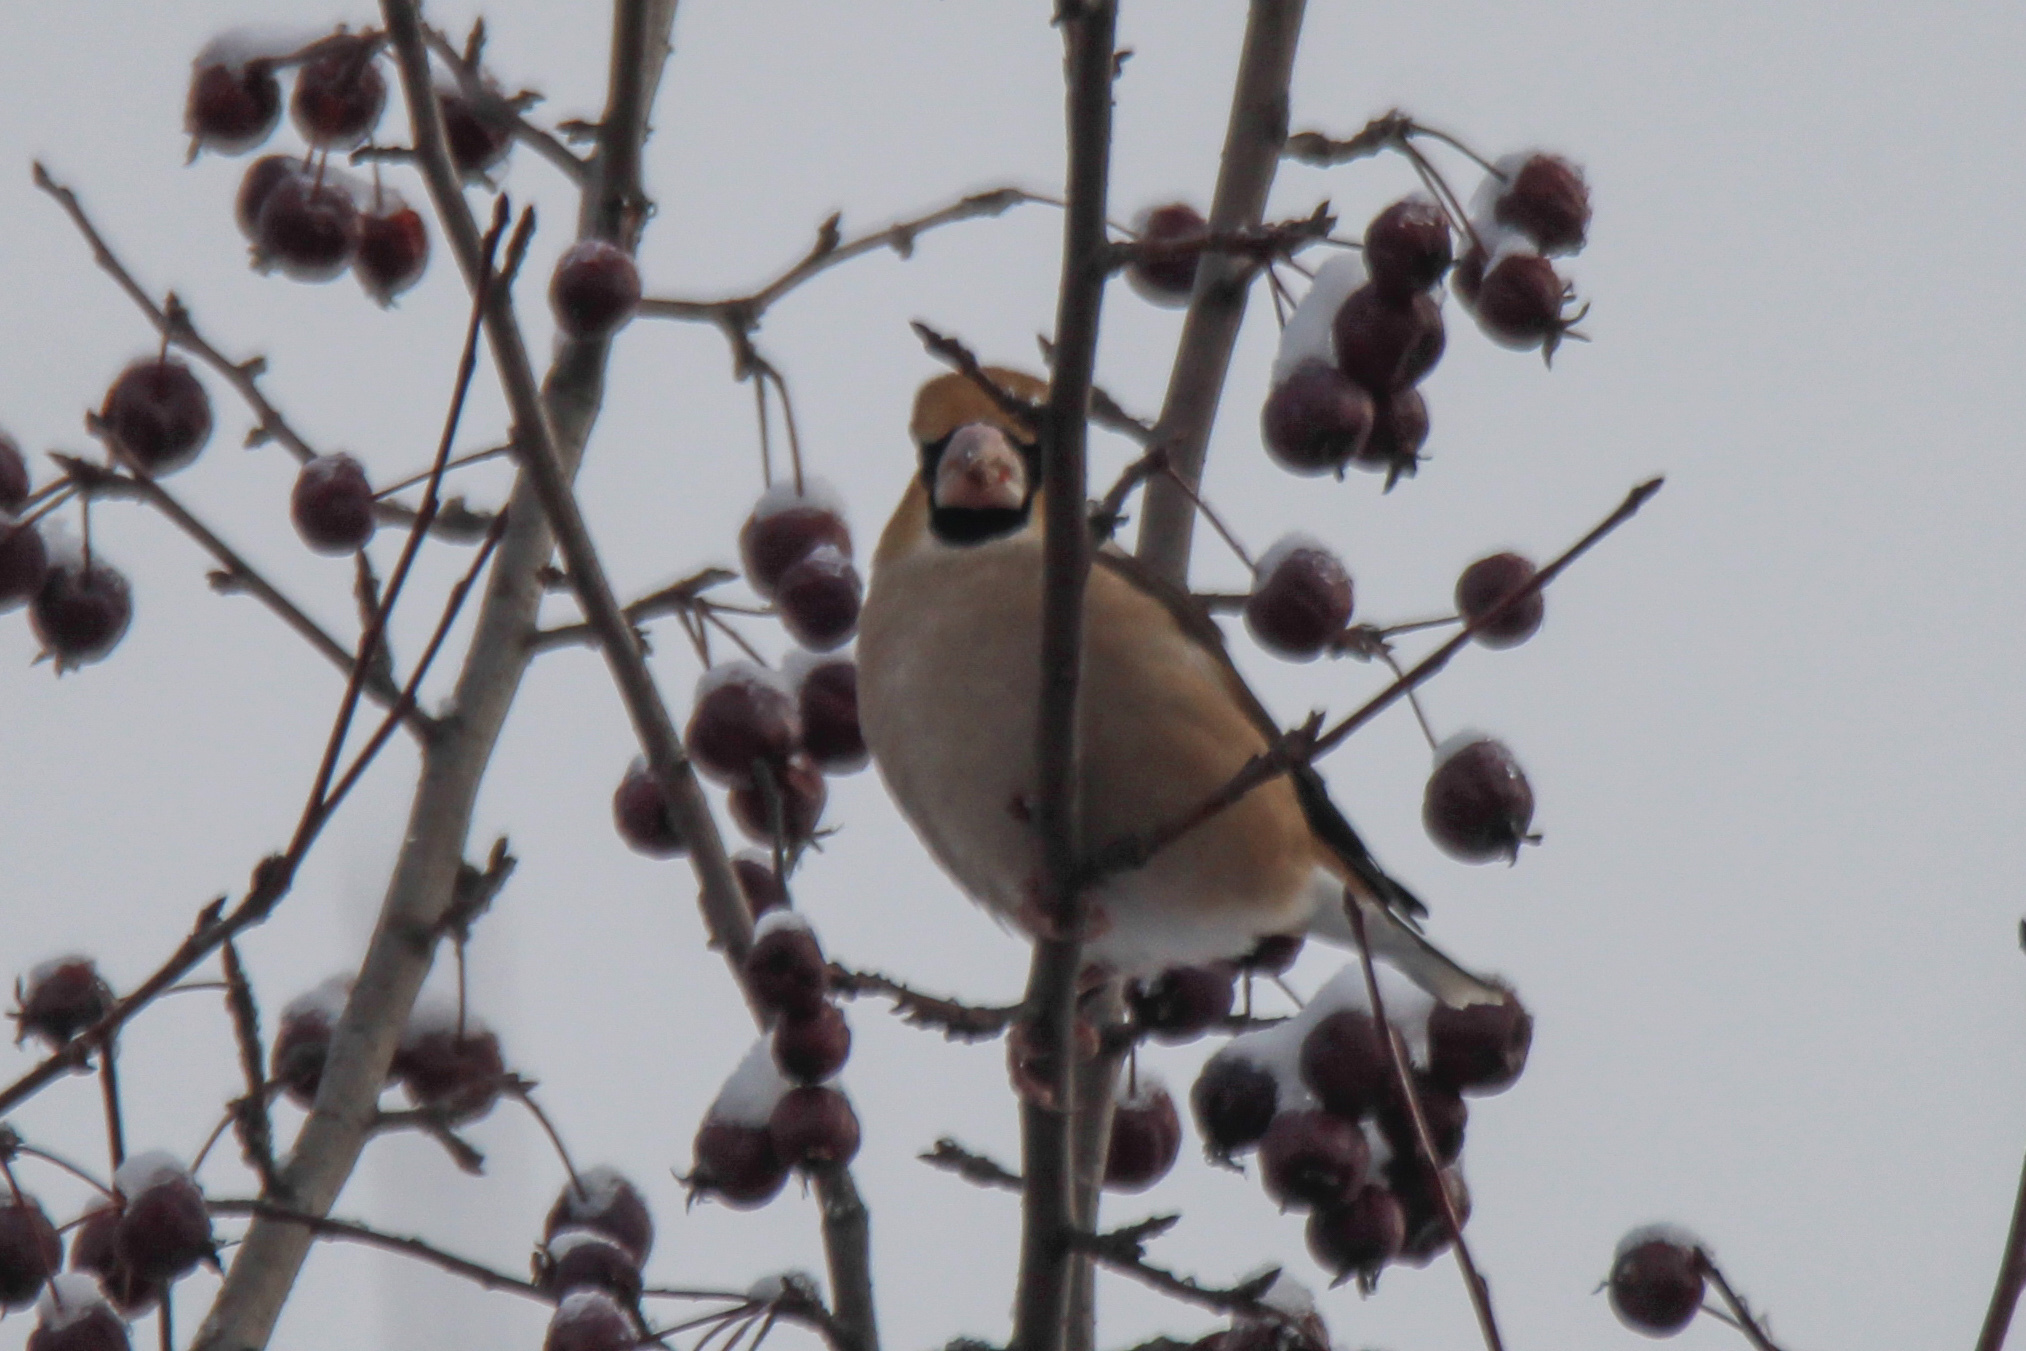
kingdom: Animalia
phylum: Chordata
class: Aves
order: Passeriformes
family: Fringillidae
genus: Coccothraustes
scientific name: Coccothraustes coccothraustes
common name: Hawfinch
